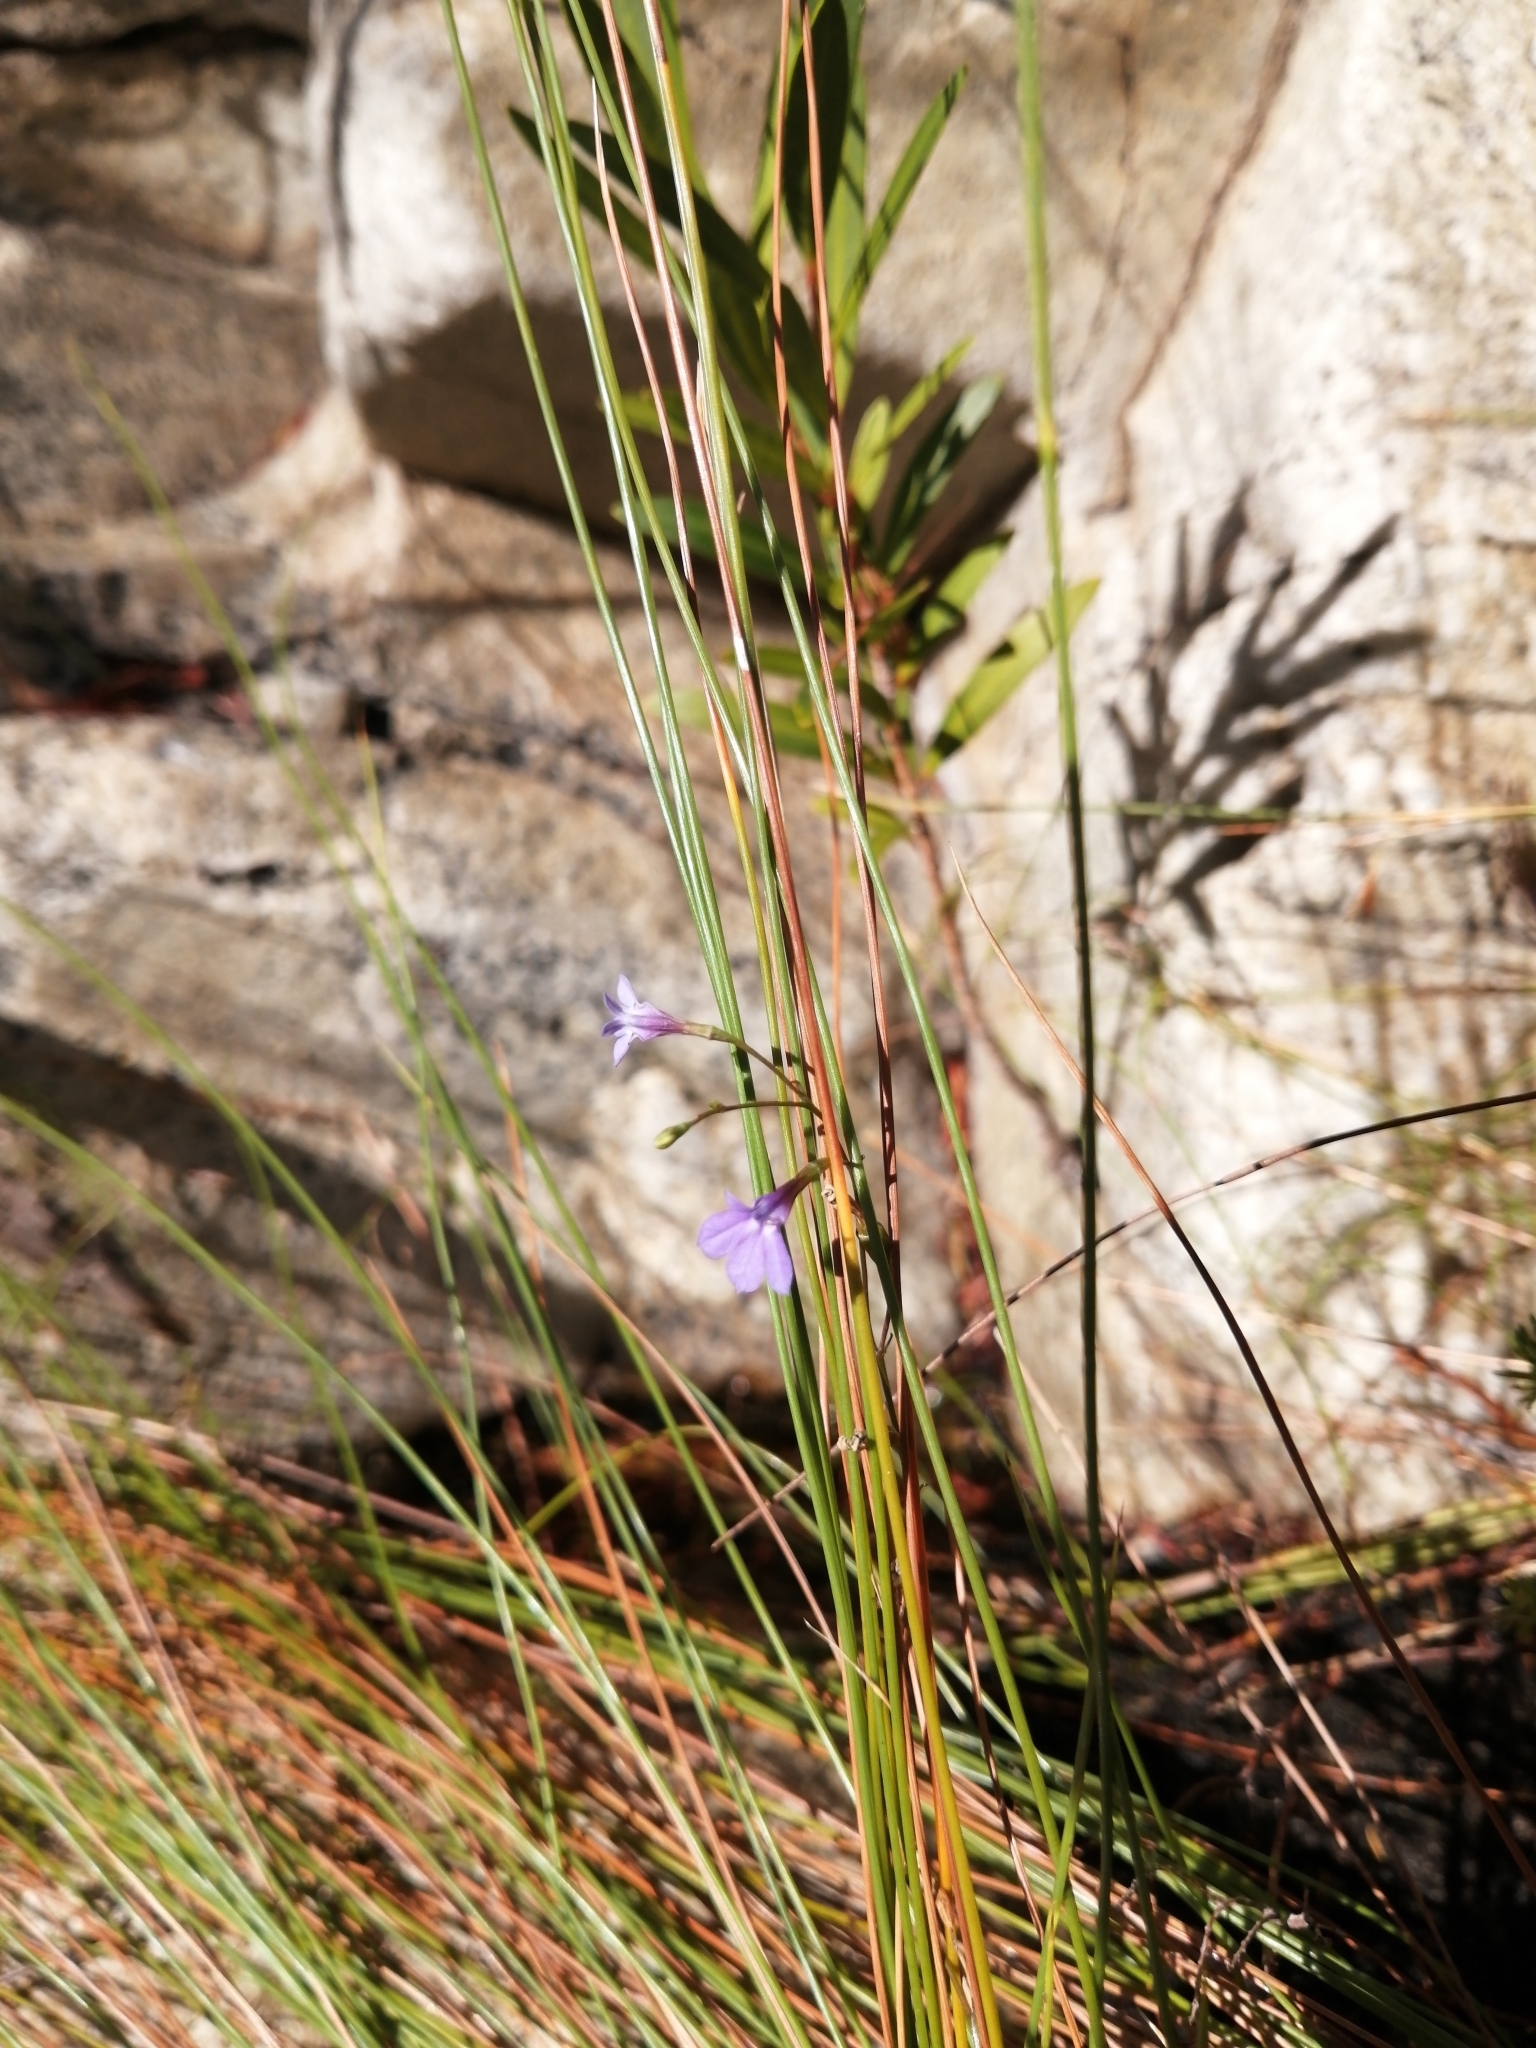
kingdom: Plantae
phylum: Tracheophyta
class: Magnoliopsida
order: Asterales
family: Campanulaceae
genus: Wimmerella
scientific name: Wimmerella arabidea
